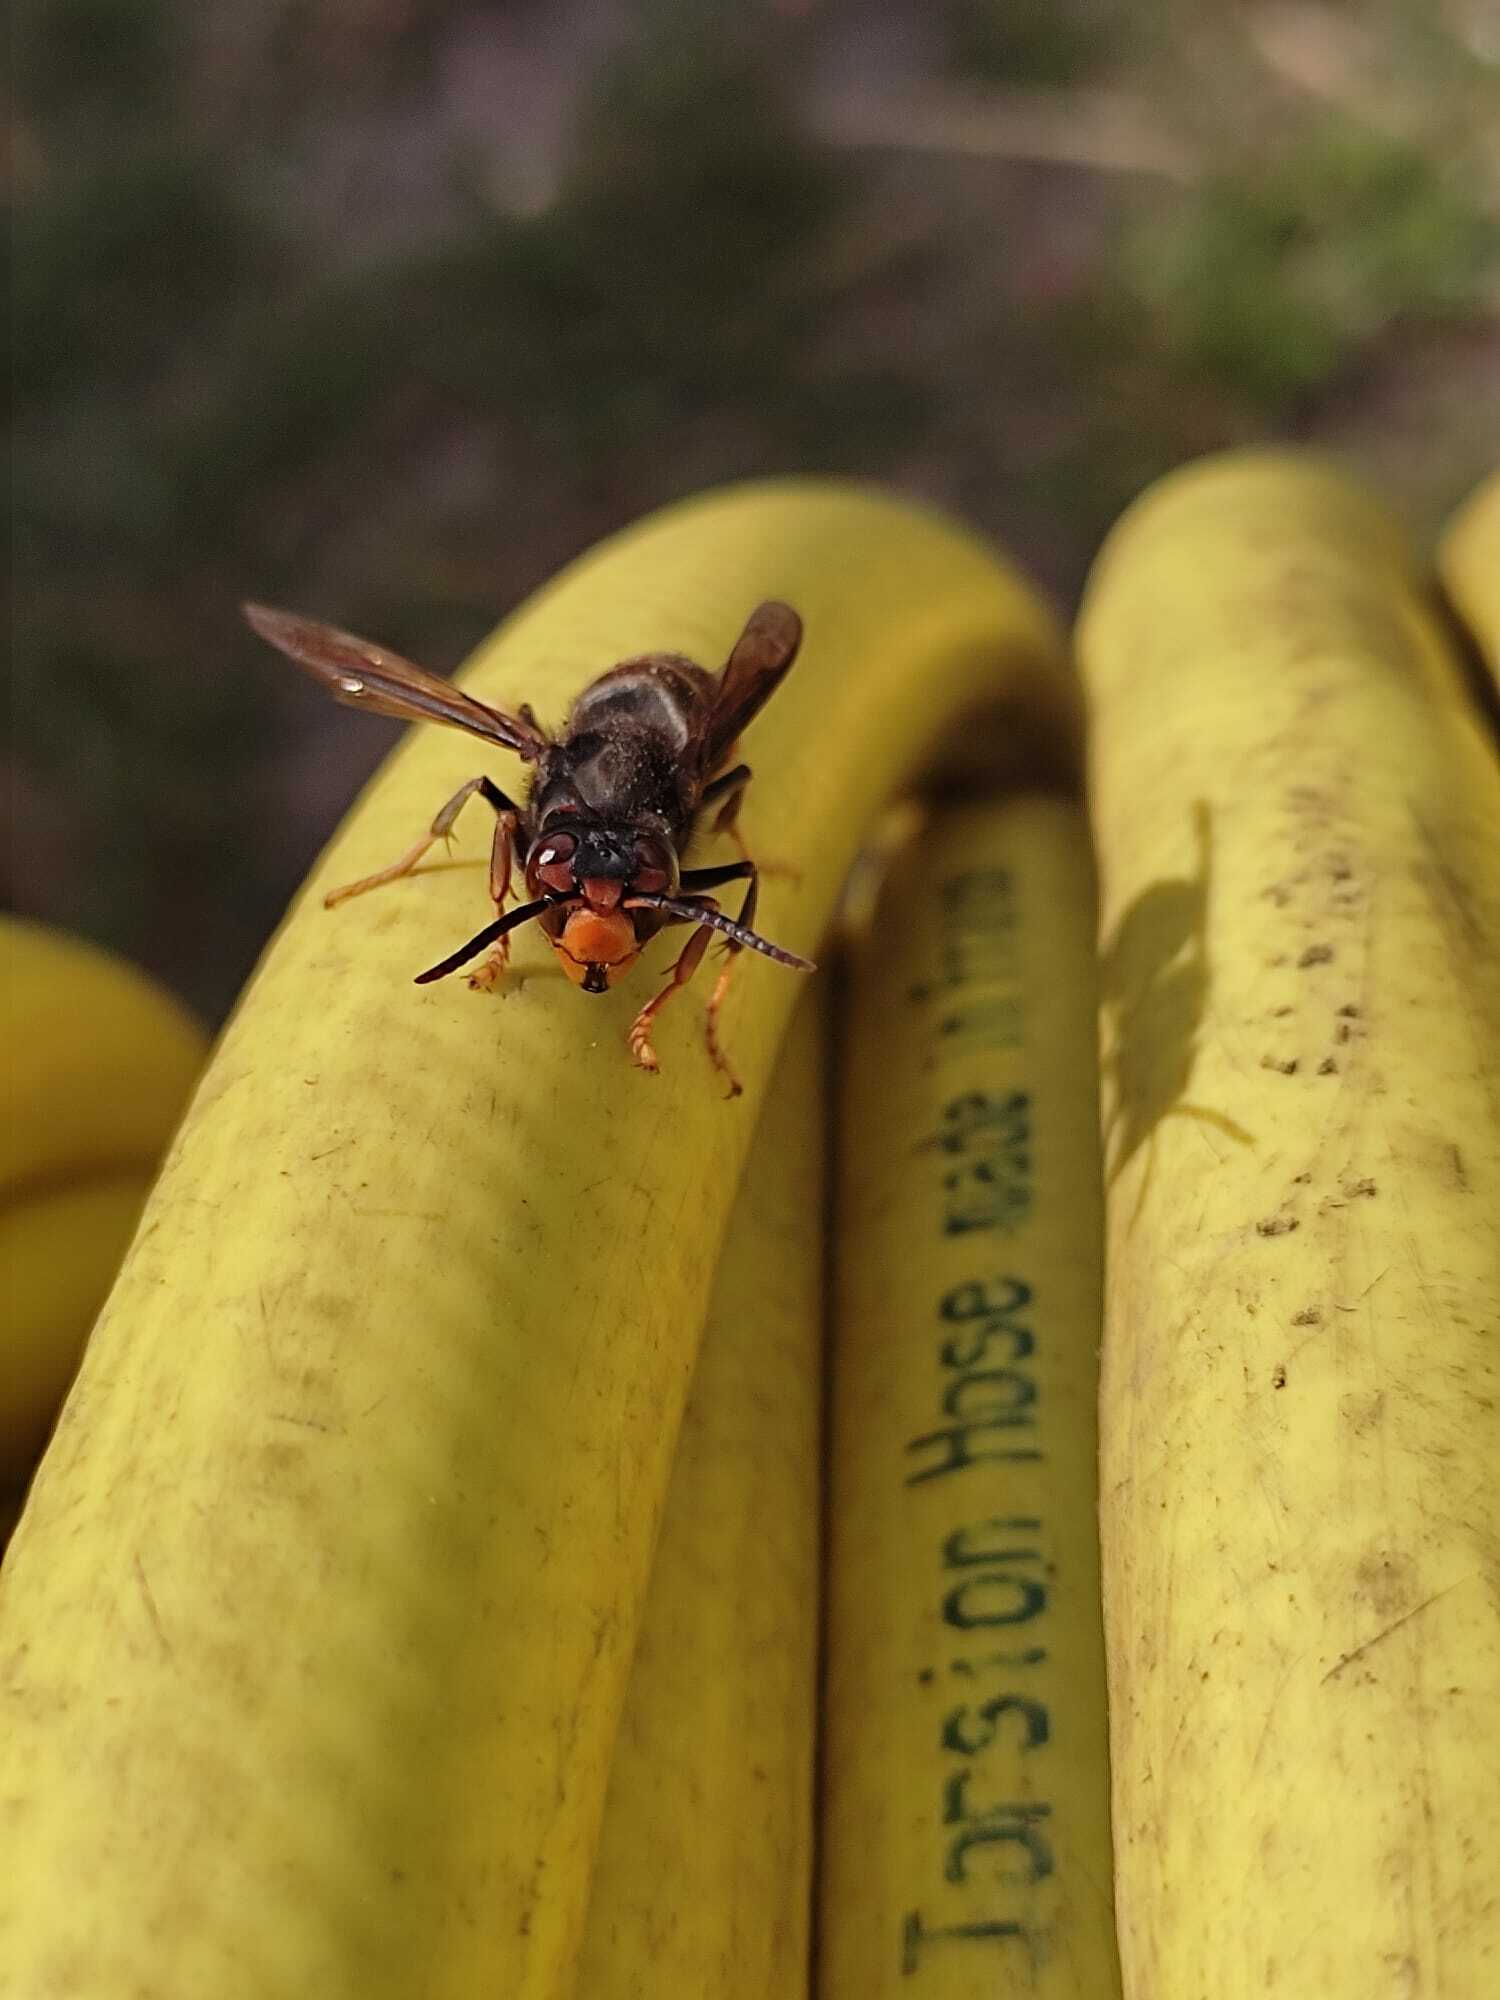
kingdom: Animalia
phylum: Arthropoda
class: Insecta
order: Hymenoptera
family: Vespidae
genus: Vespa
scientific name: Vespa velutina
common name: Asian hornet
